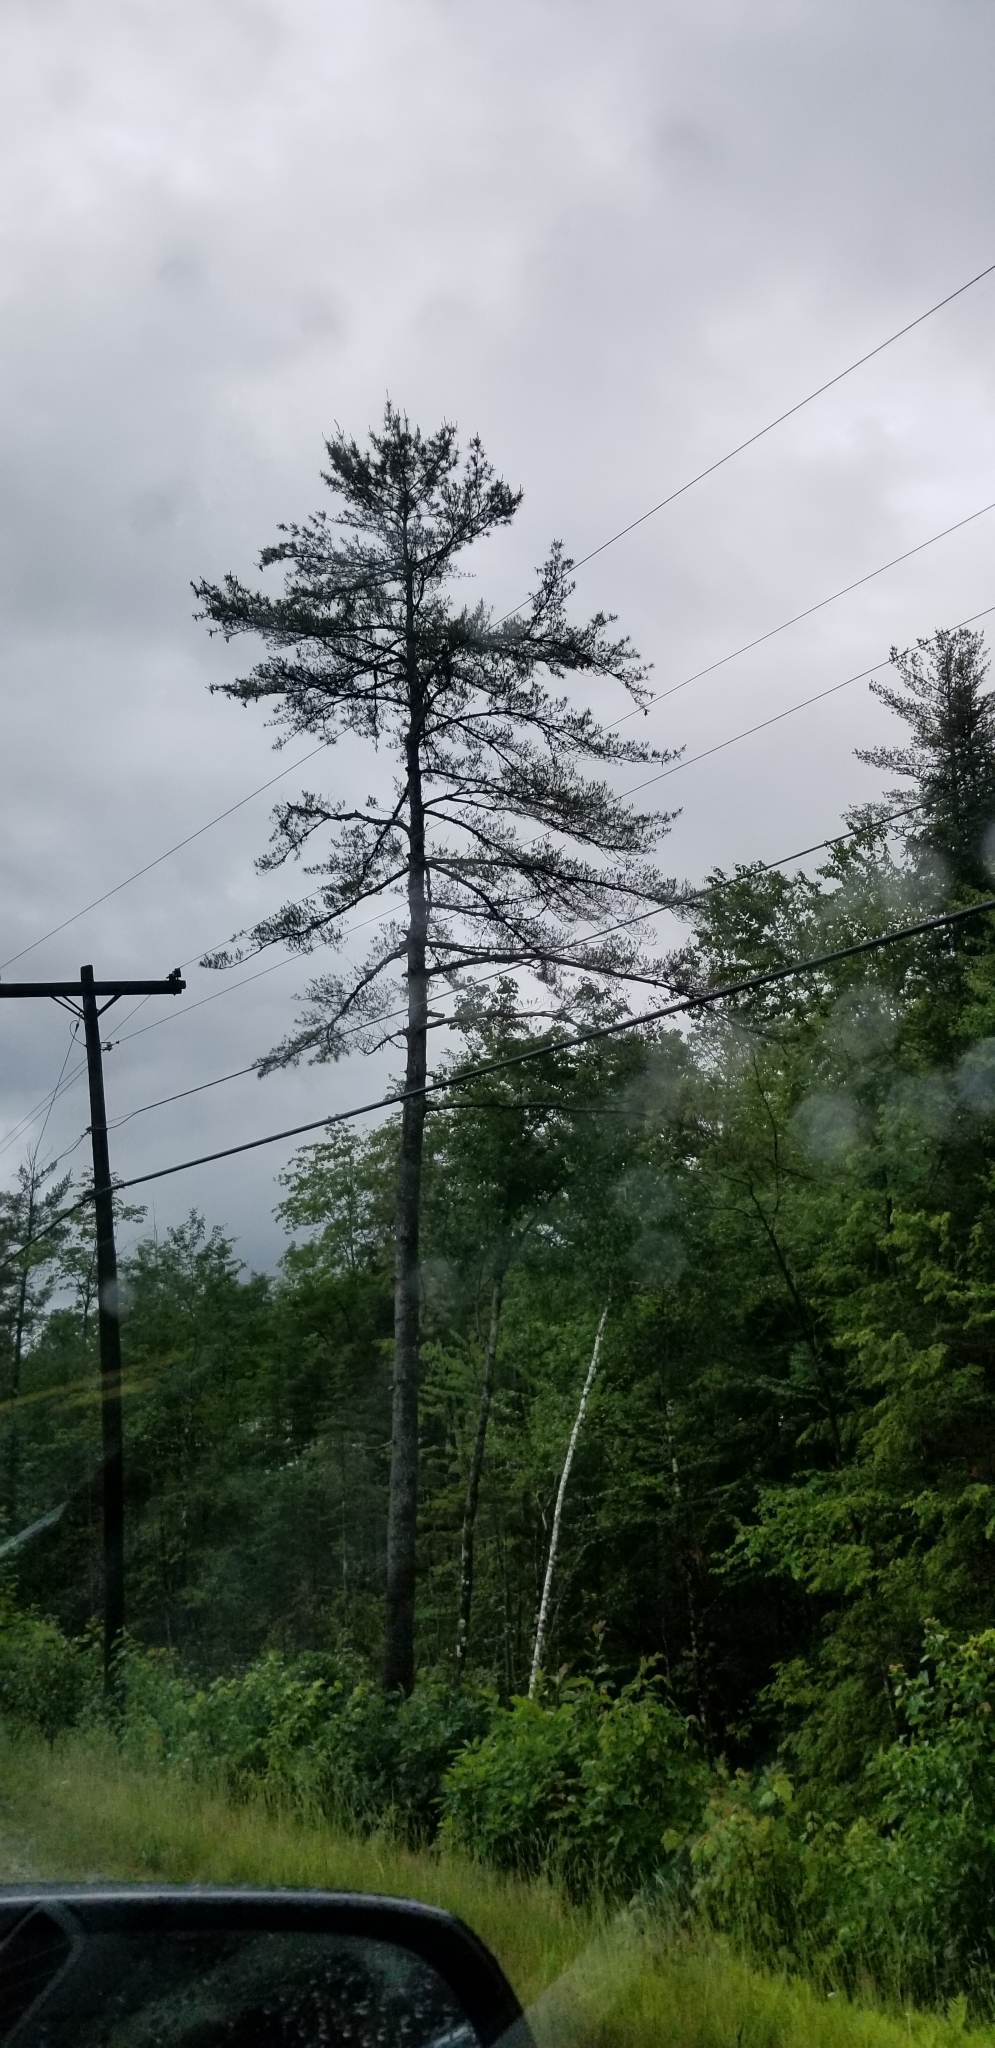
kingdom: Plantae
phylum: Tracheophyta
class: Pinopsida
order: Pinales
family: Pinaceae
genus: Pinus
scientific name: Pinus strobus
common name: Weymouth pine
